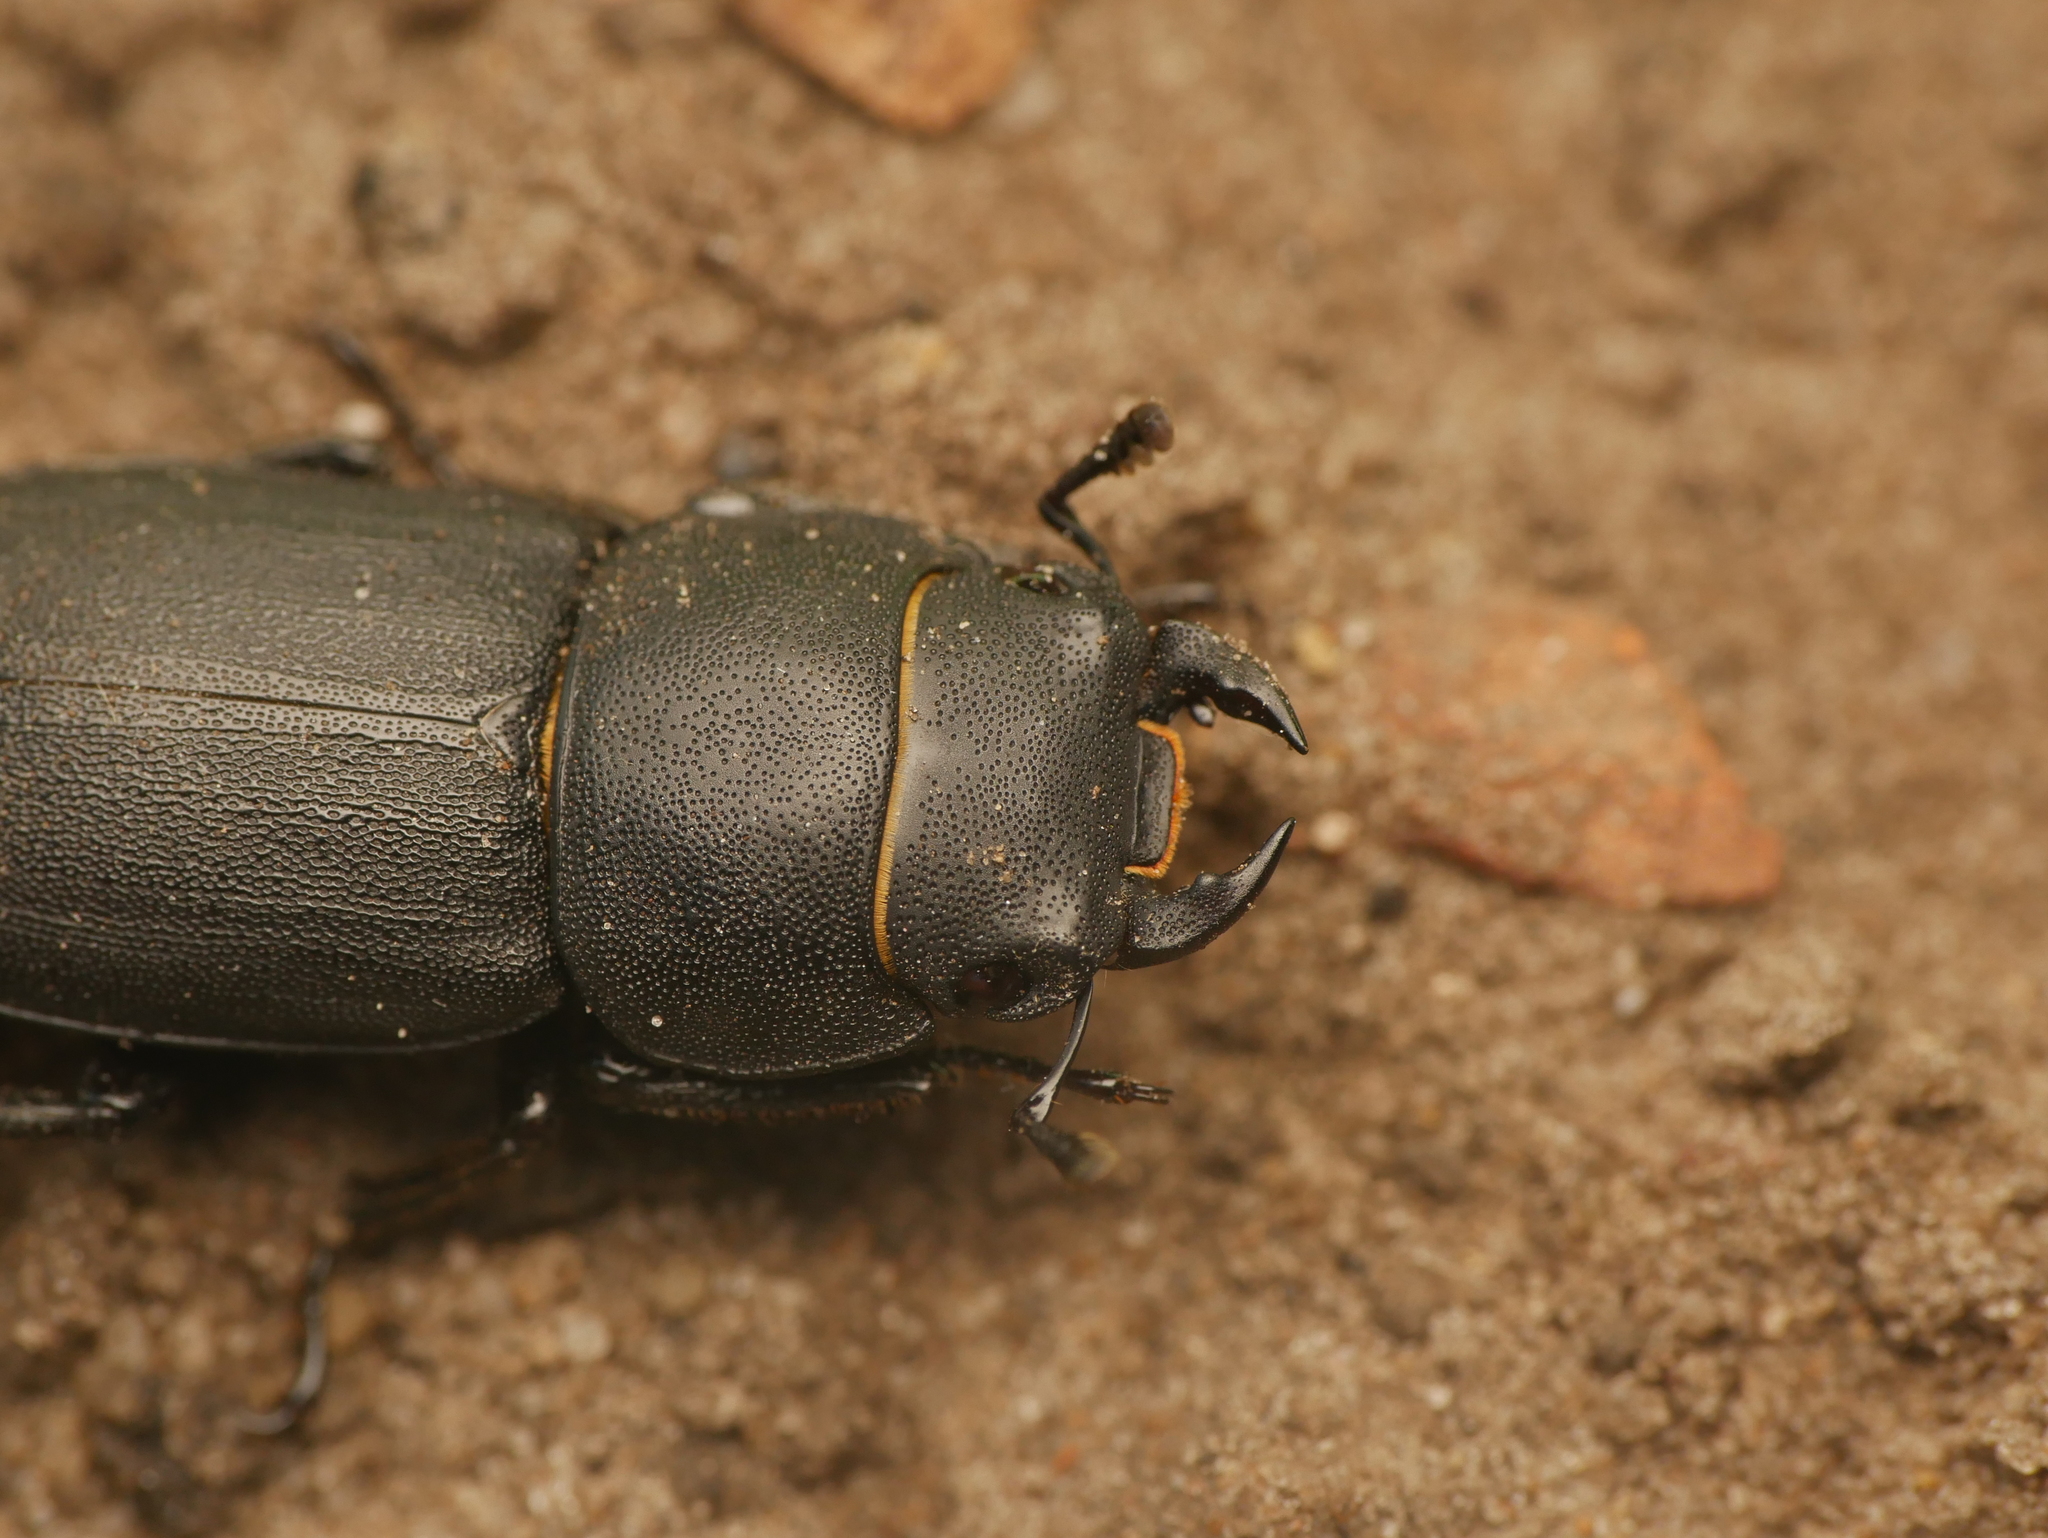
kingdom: Animalia
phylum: Arthropoda
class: Insecta
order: Coleoptera
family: Lucanidae
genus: Dorcus
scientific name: Dorcus parallelipipedus
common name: Lesser stag beetle
